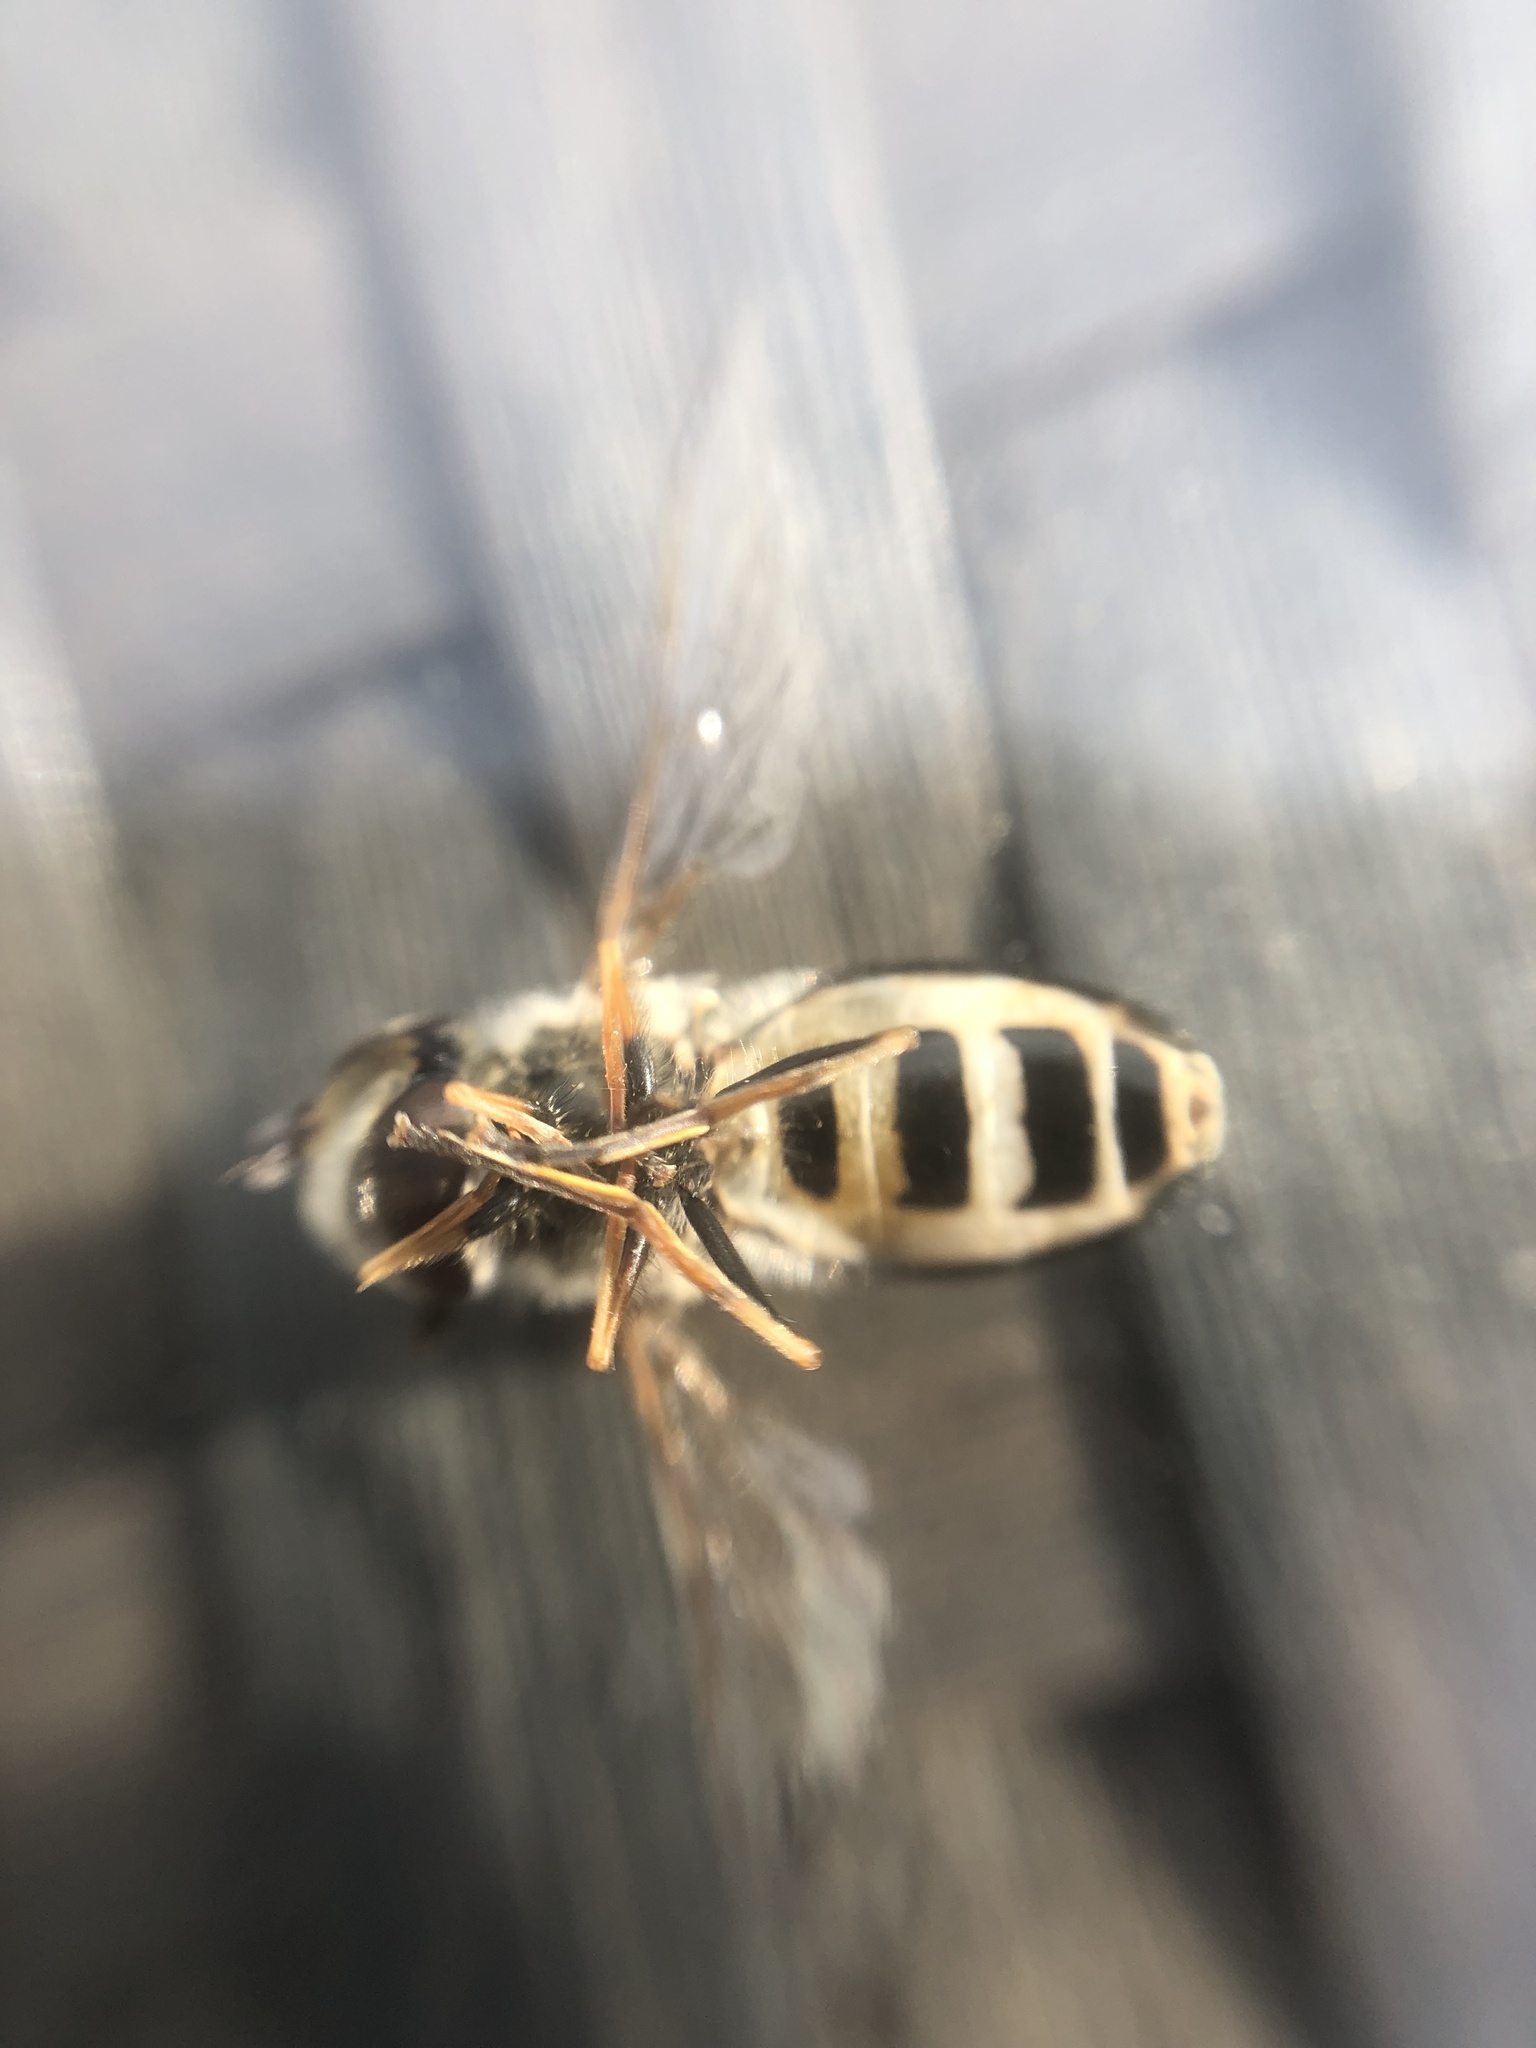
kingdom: Animalia
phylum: Arthropoda
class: Insecta
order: Diptera
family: Syrphidae
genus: Scaeva
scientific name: Scaeva pyrastri
